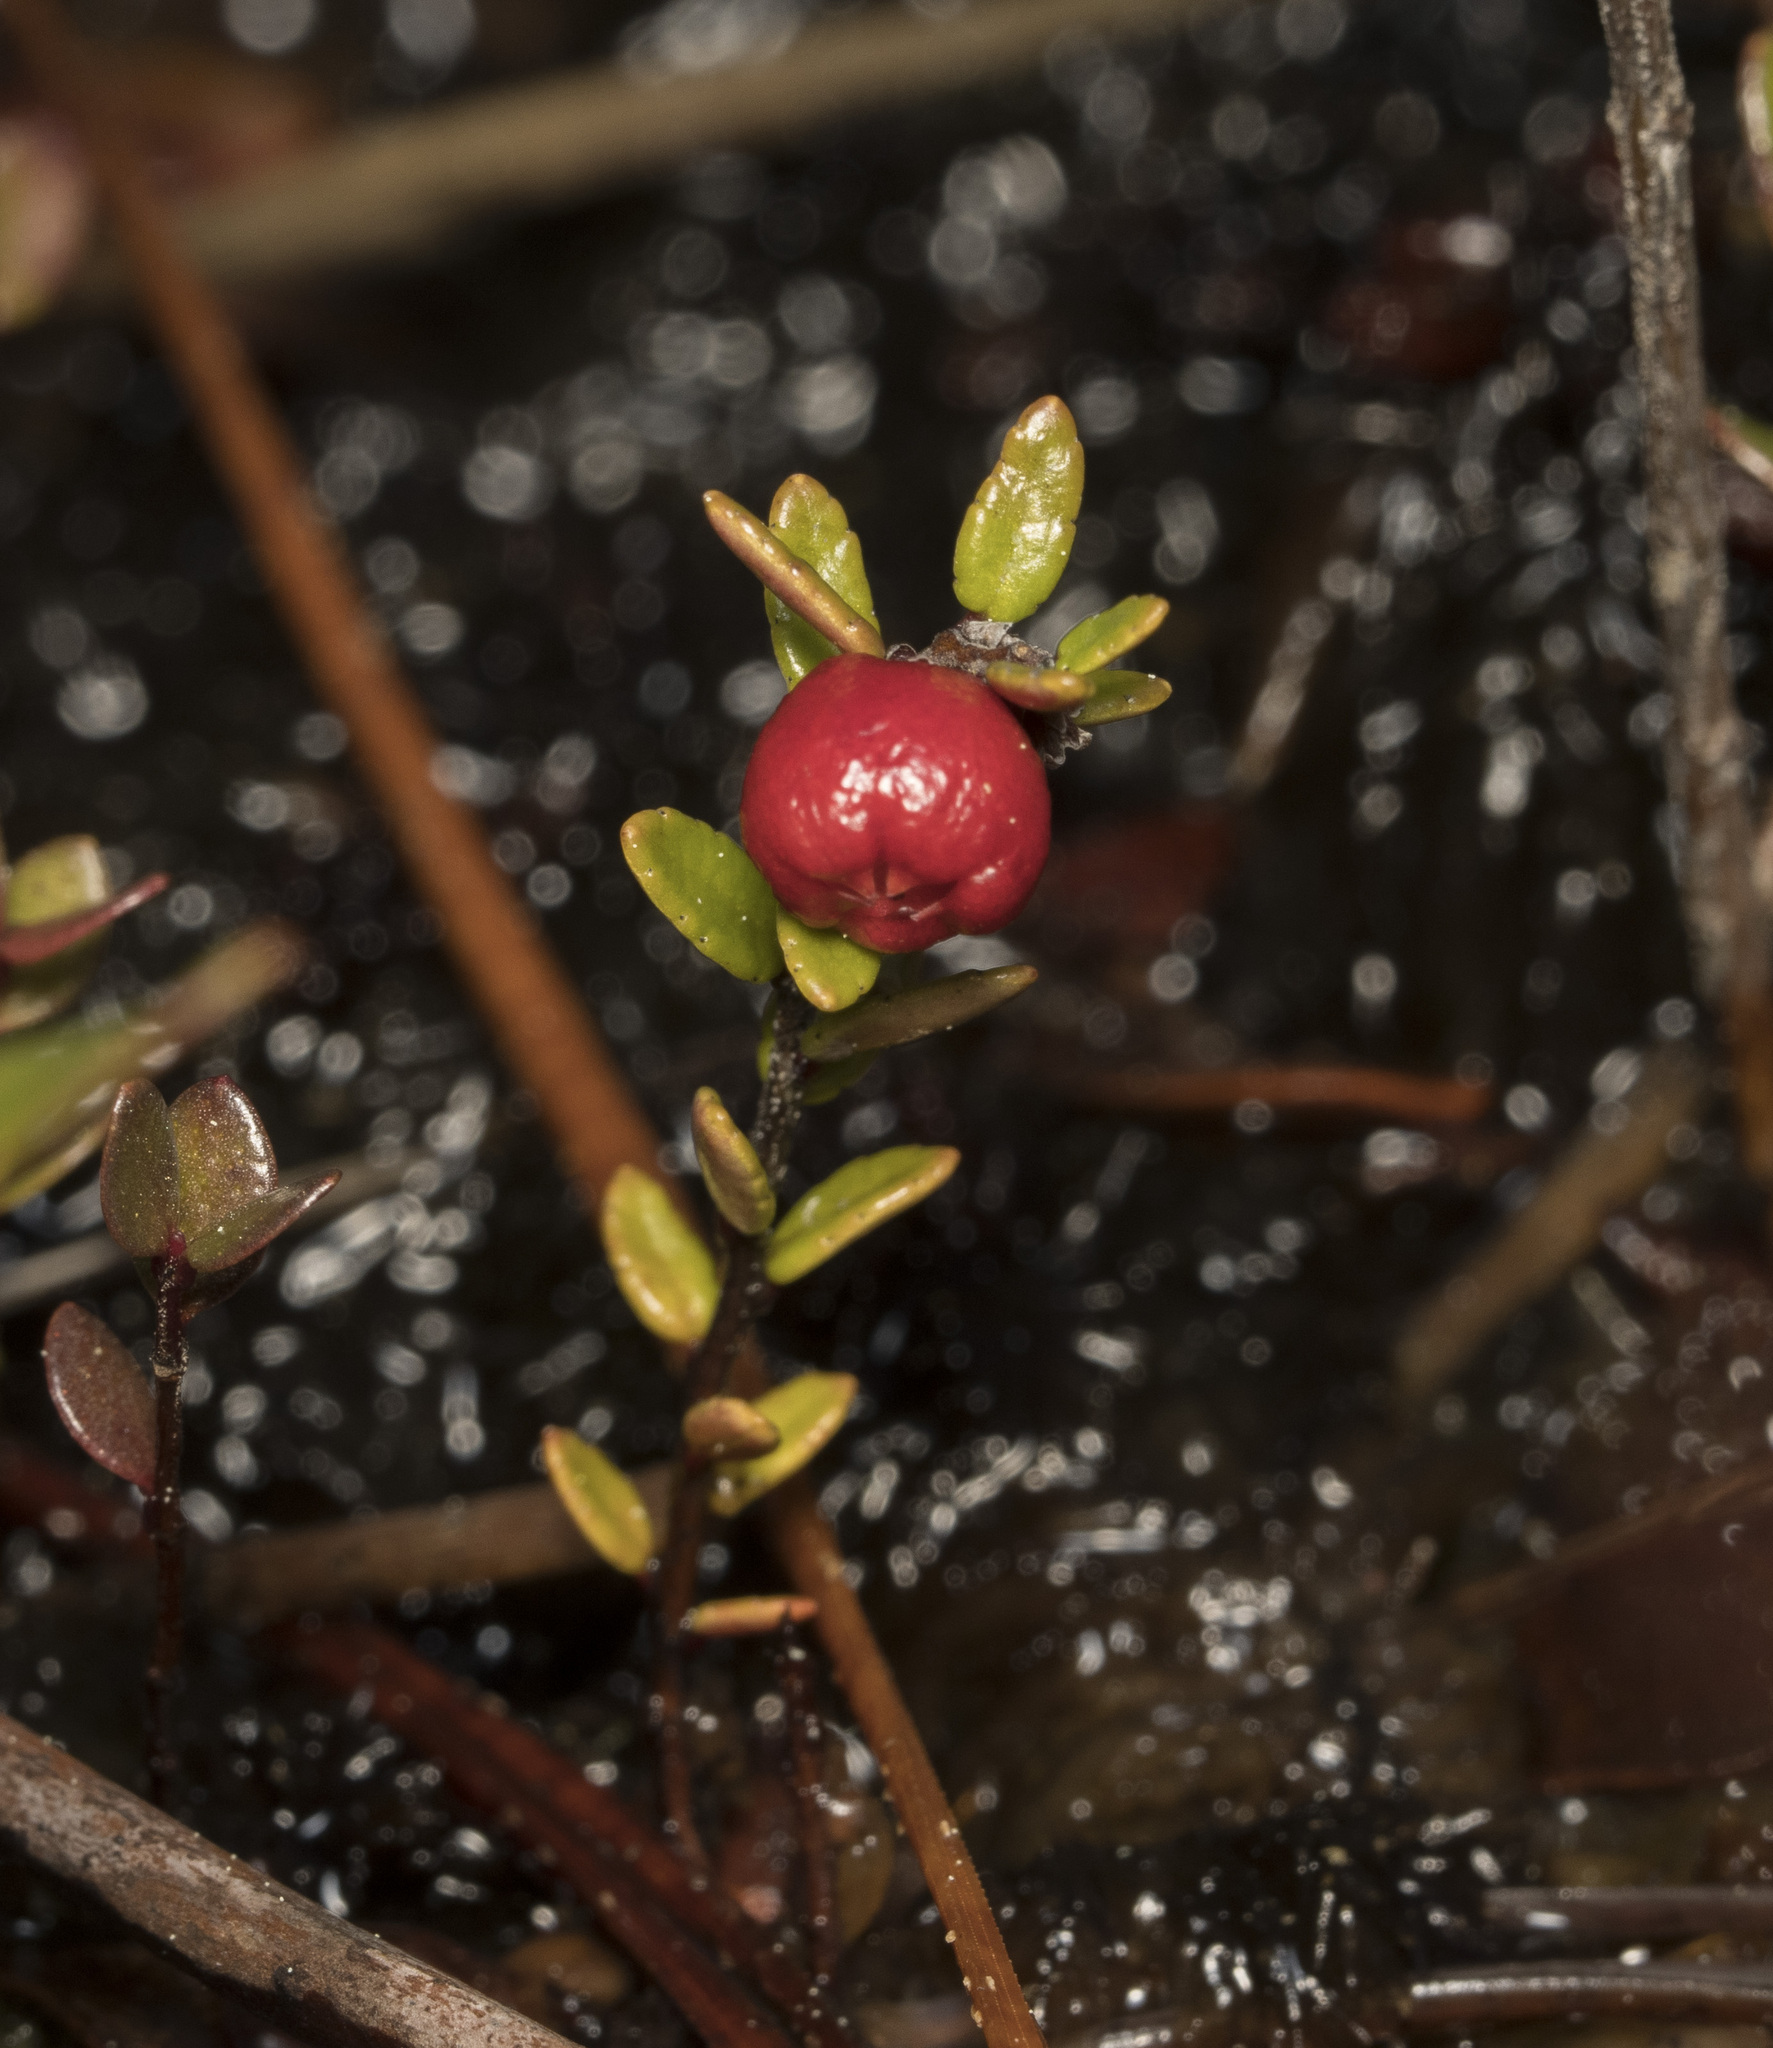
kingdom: Plantae
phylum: Tracheophyta
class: Magnoliopsida
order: Ericales
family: Ericaceae
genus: Gaultheria
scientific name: Gaultheria antarctica
